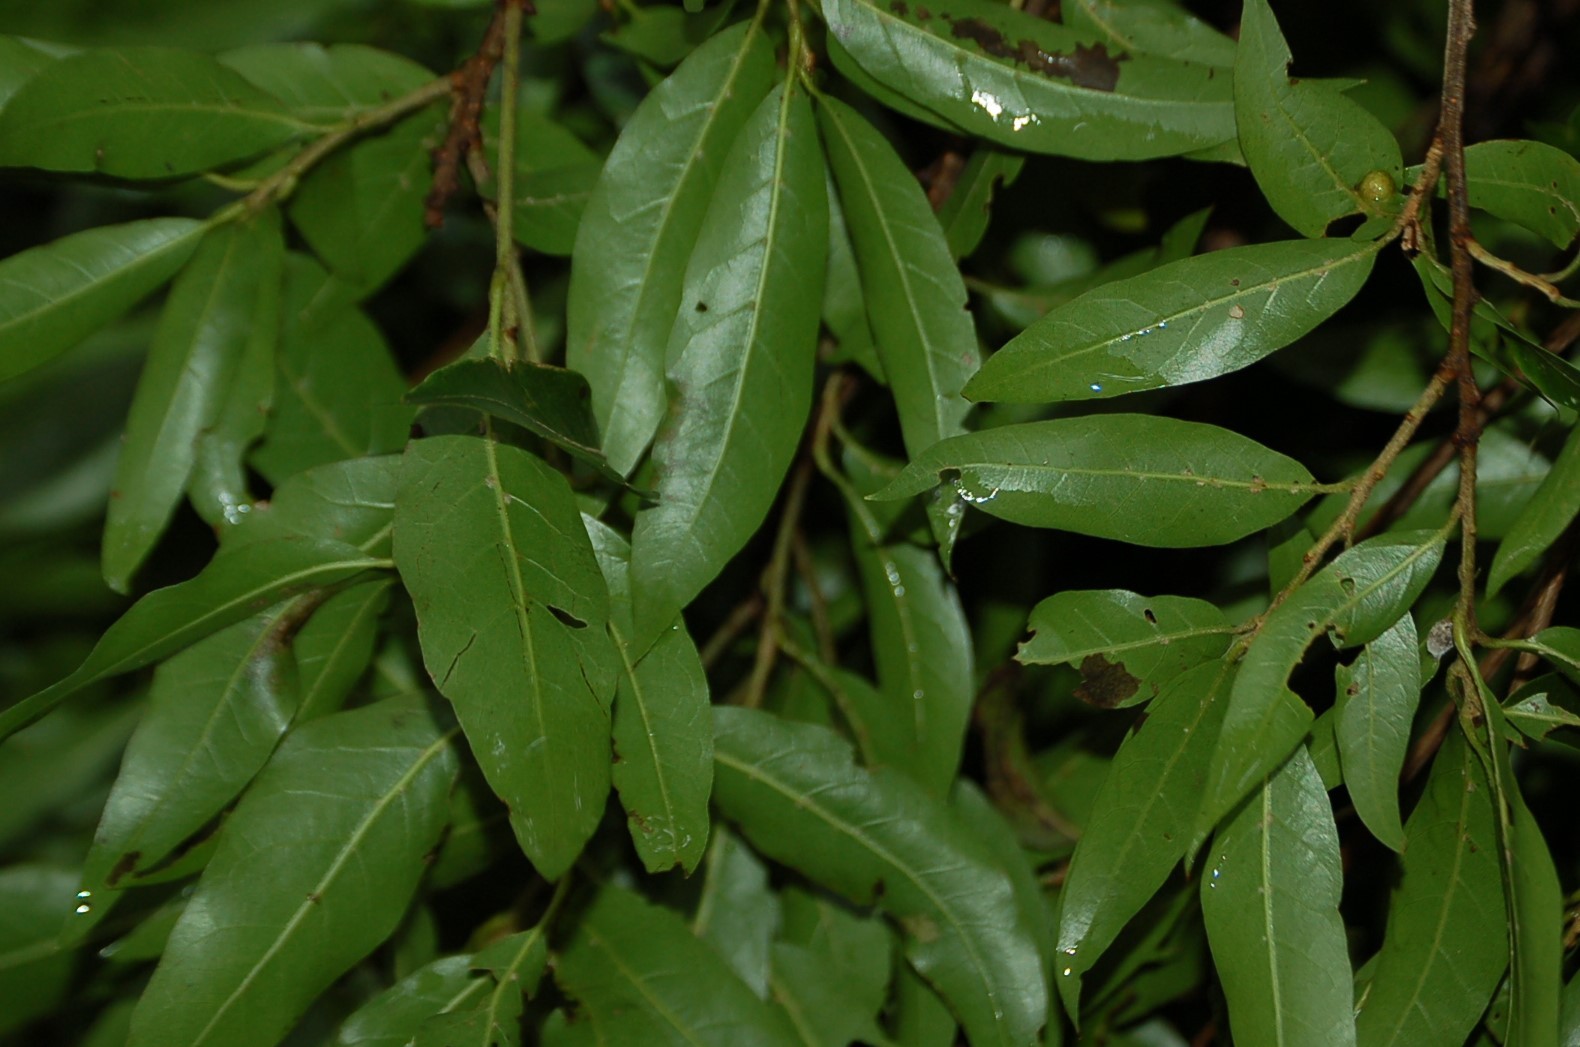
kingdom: Plantae
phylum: Tracheophyta
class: Magnoliopsida
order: Fagales
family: Fagaceae
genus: Quercus
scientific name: Quercus laurina
